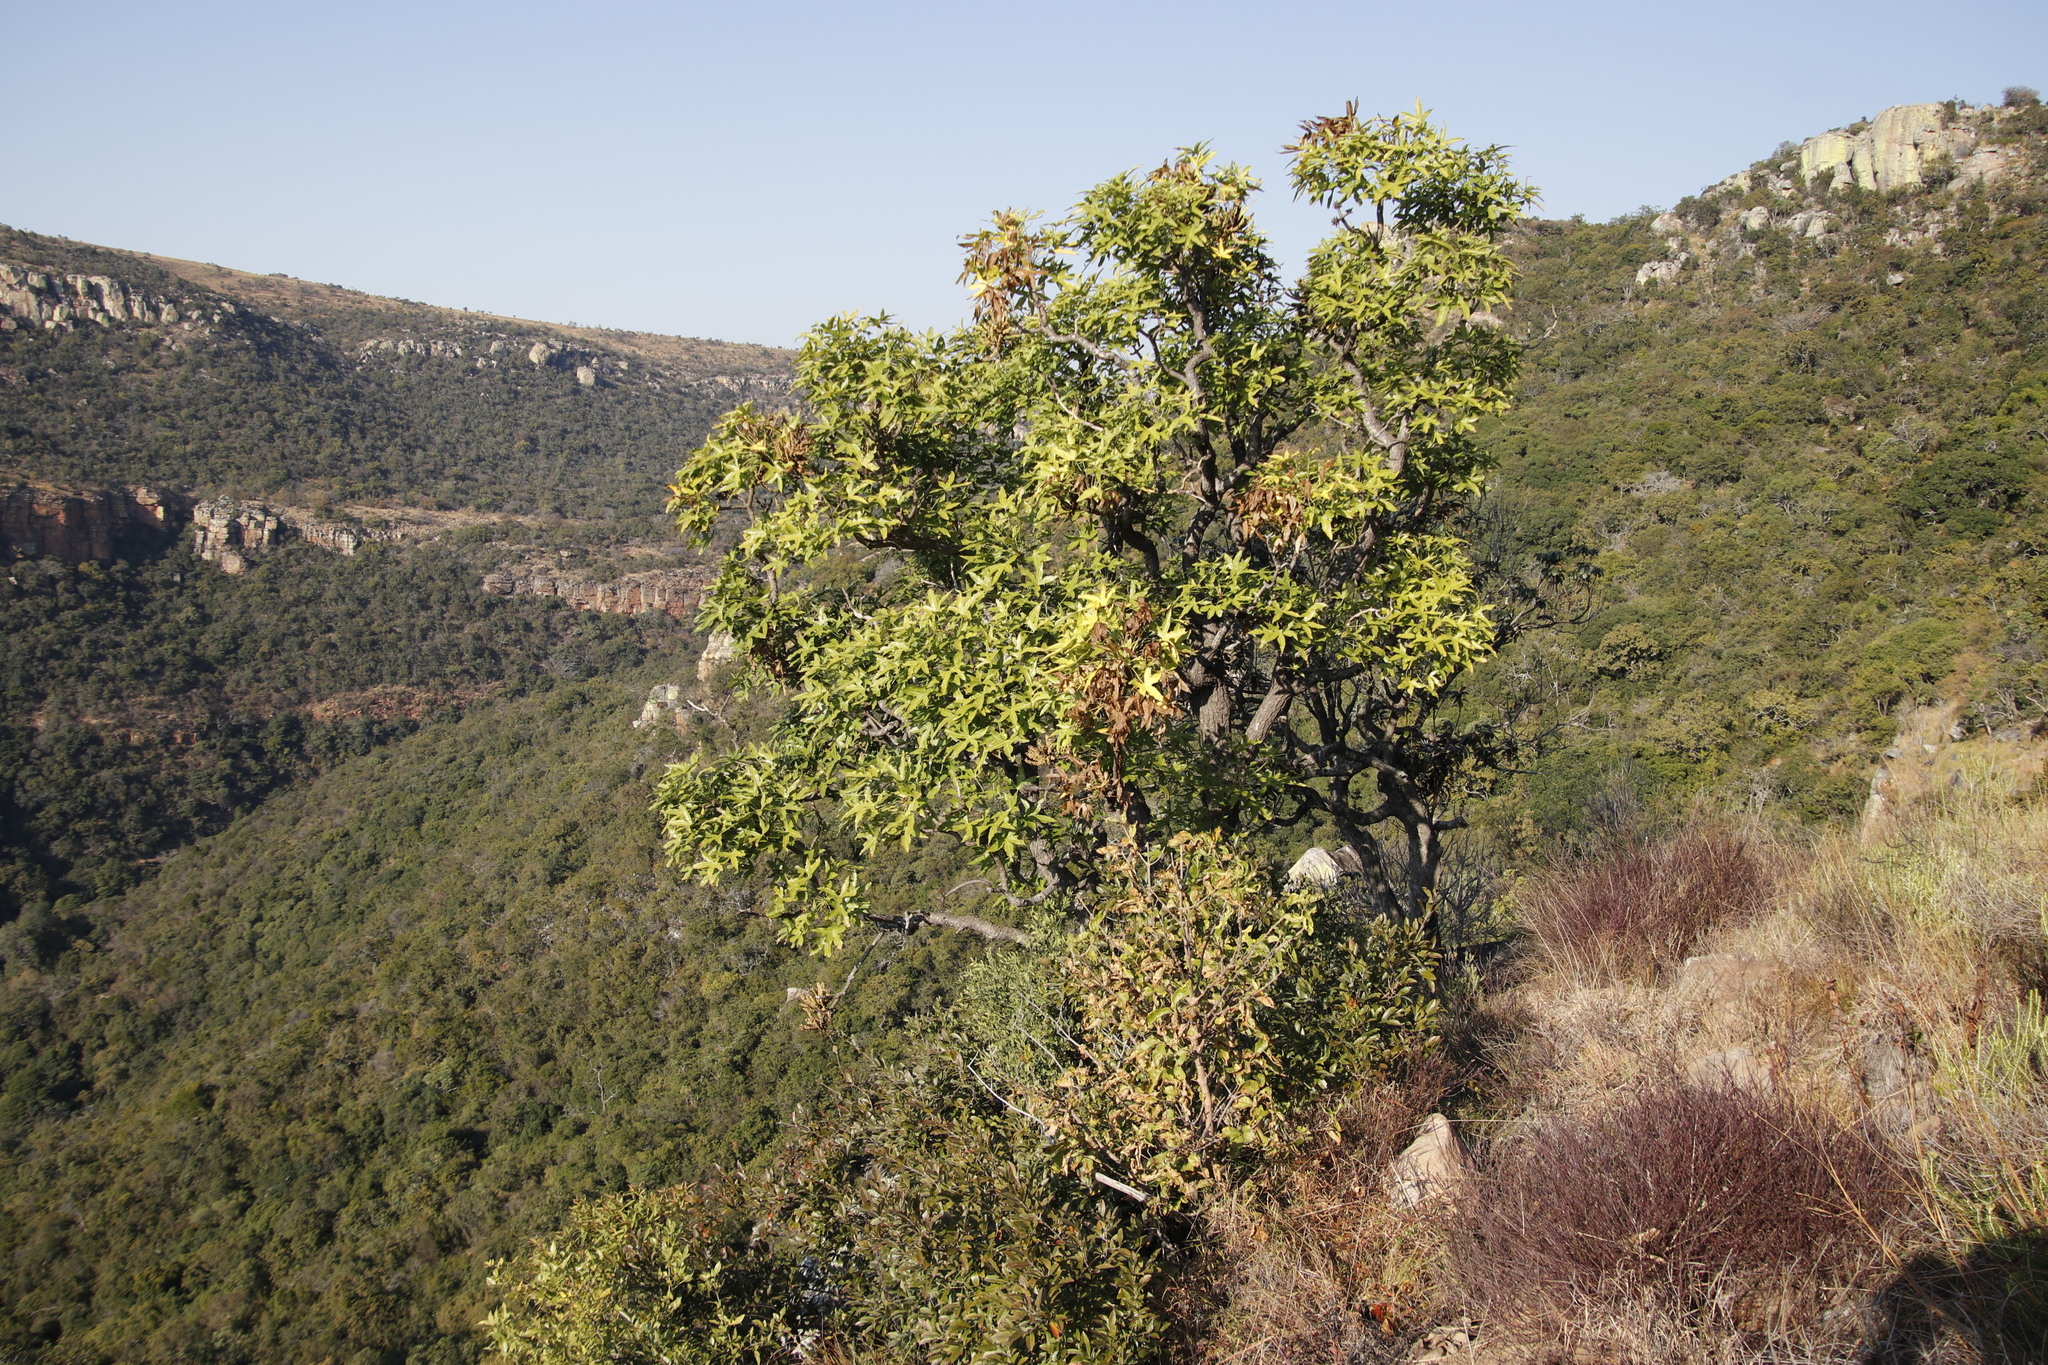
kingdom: Plantae
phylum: Tracheophyta
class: Magnoliopsida
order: Apiales
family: Araliaceae
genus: Cussonia
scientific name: Cussonia natalensis
